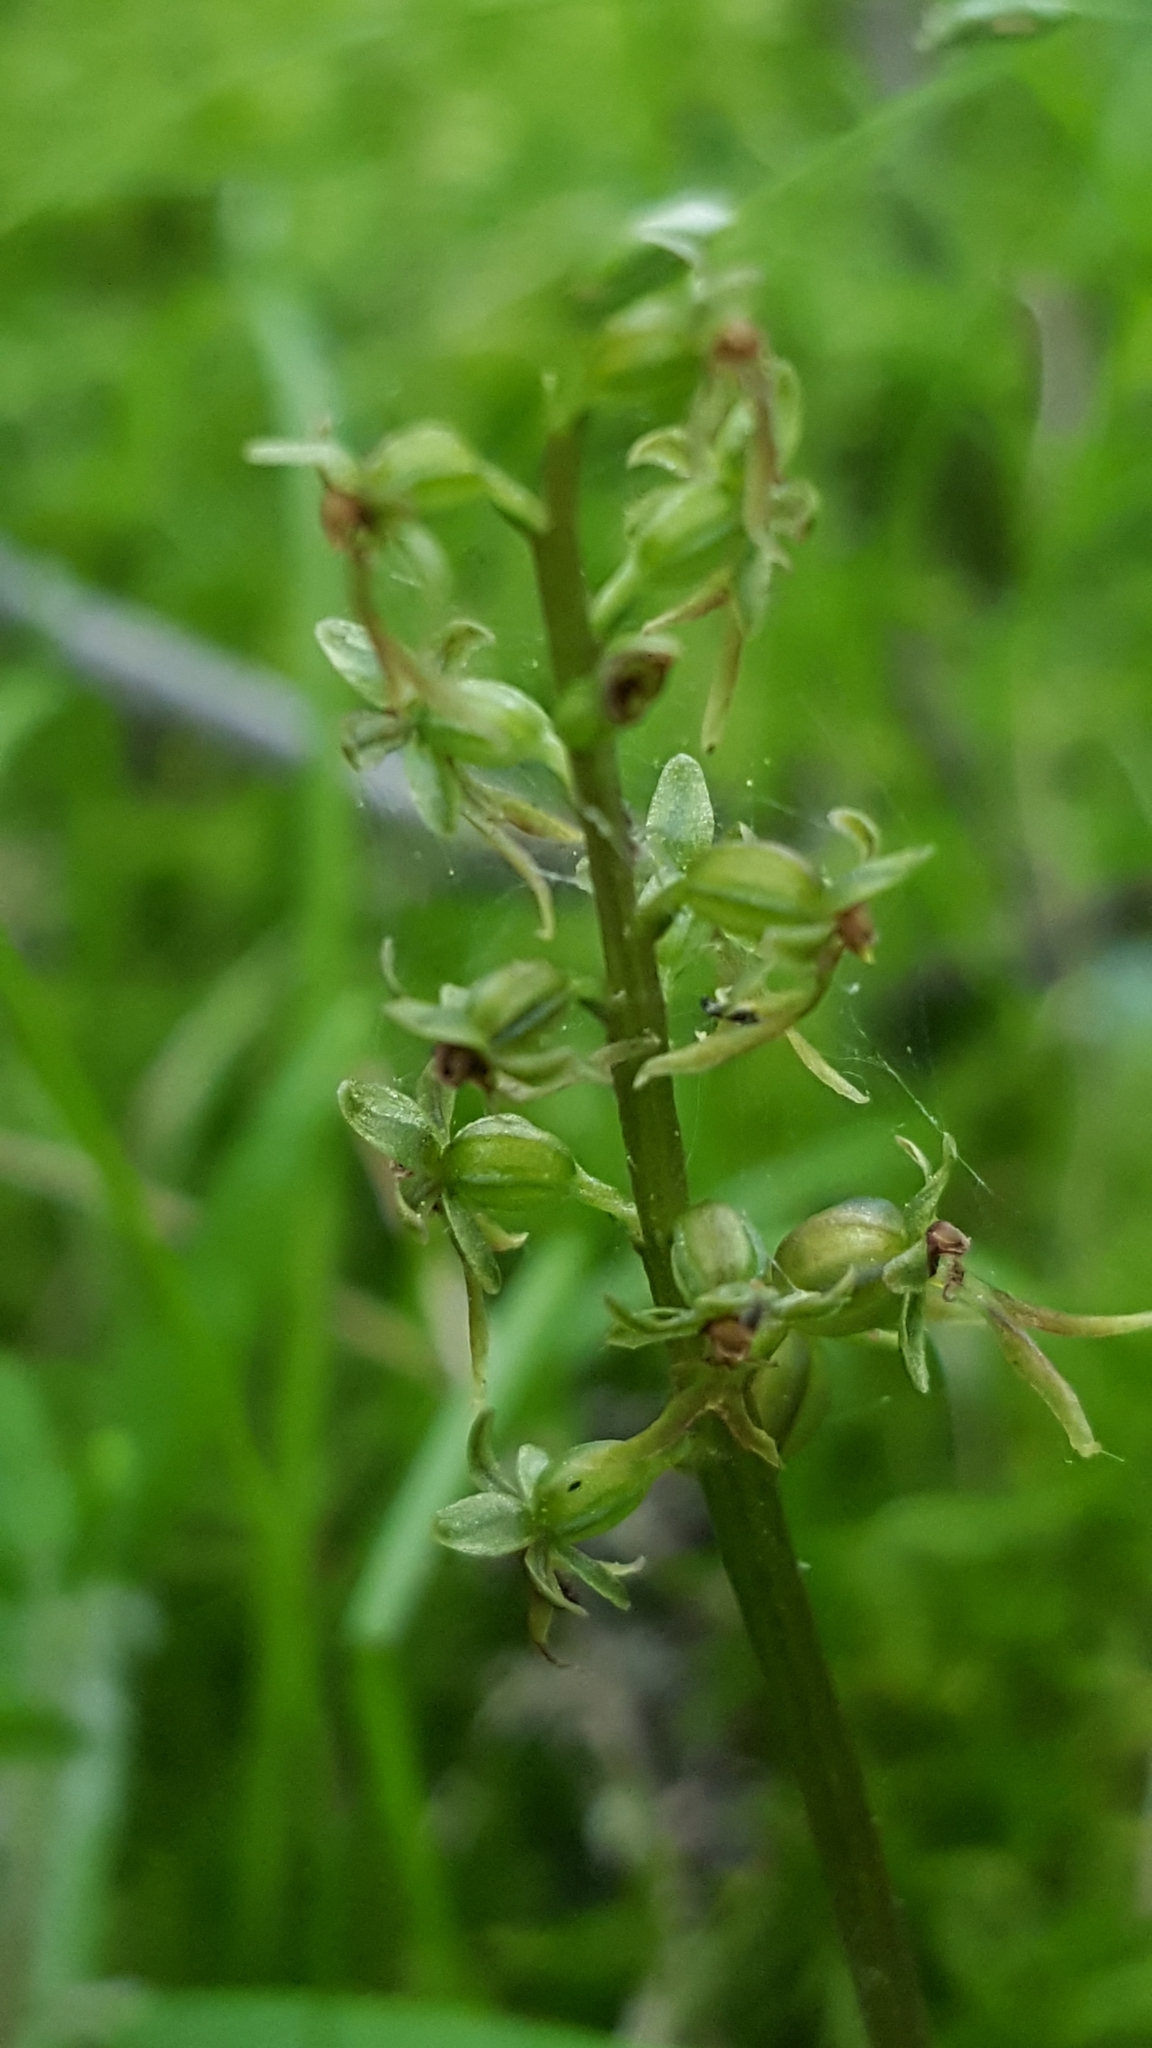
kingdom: Plantae
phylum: Tracheophyta
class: Liliopsida
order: Asparagales
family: Orchidaceae
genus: Neottia
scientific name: Neottia cordata
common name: Lesser twayblade
